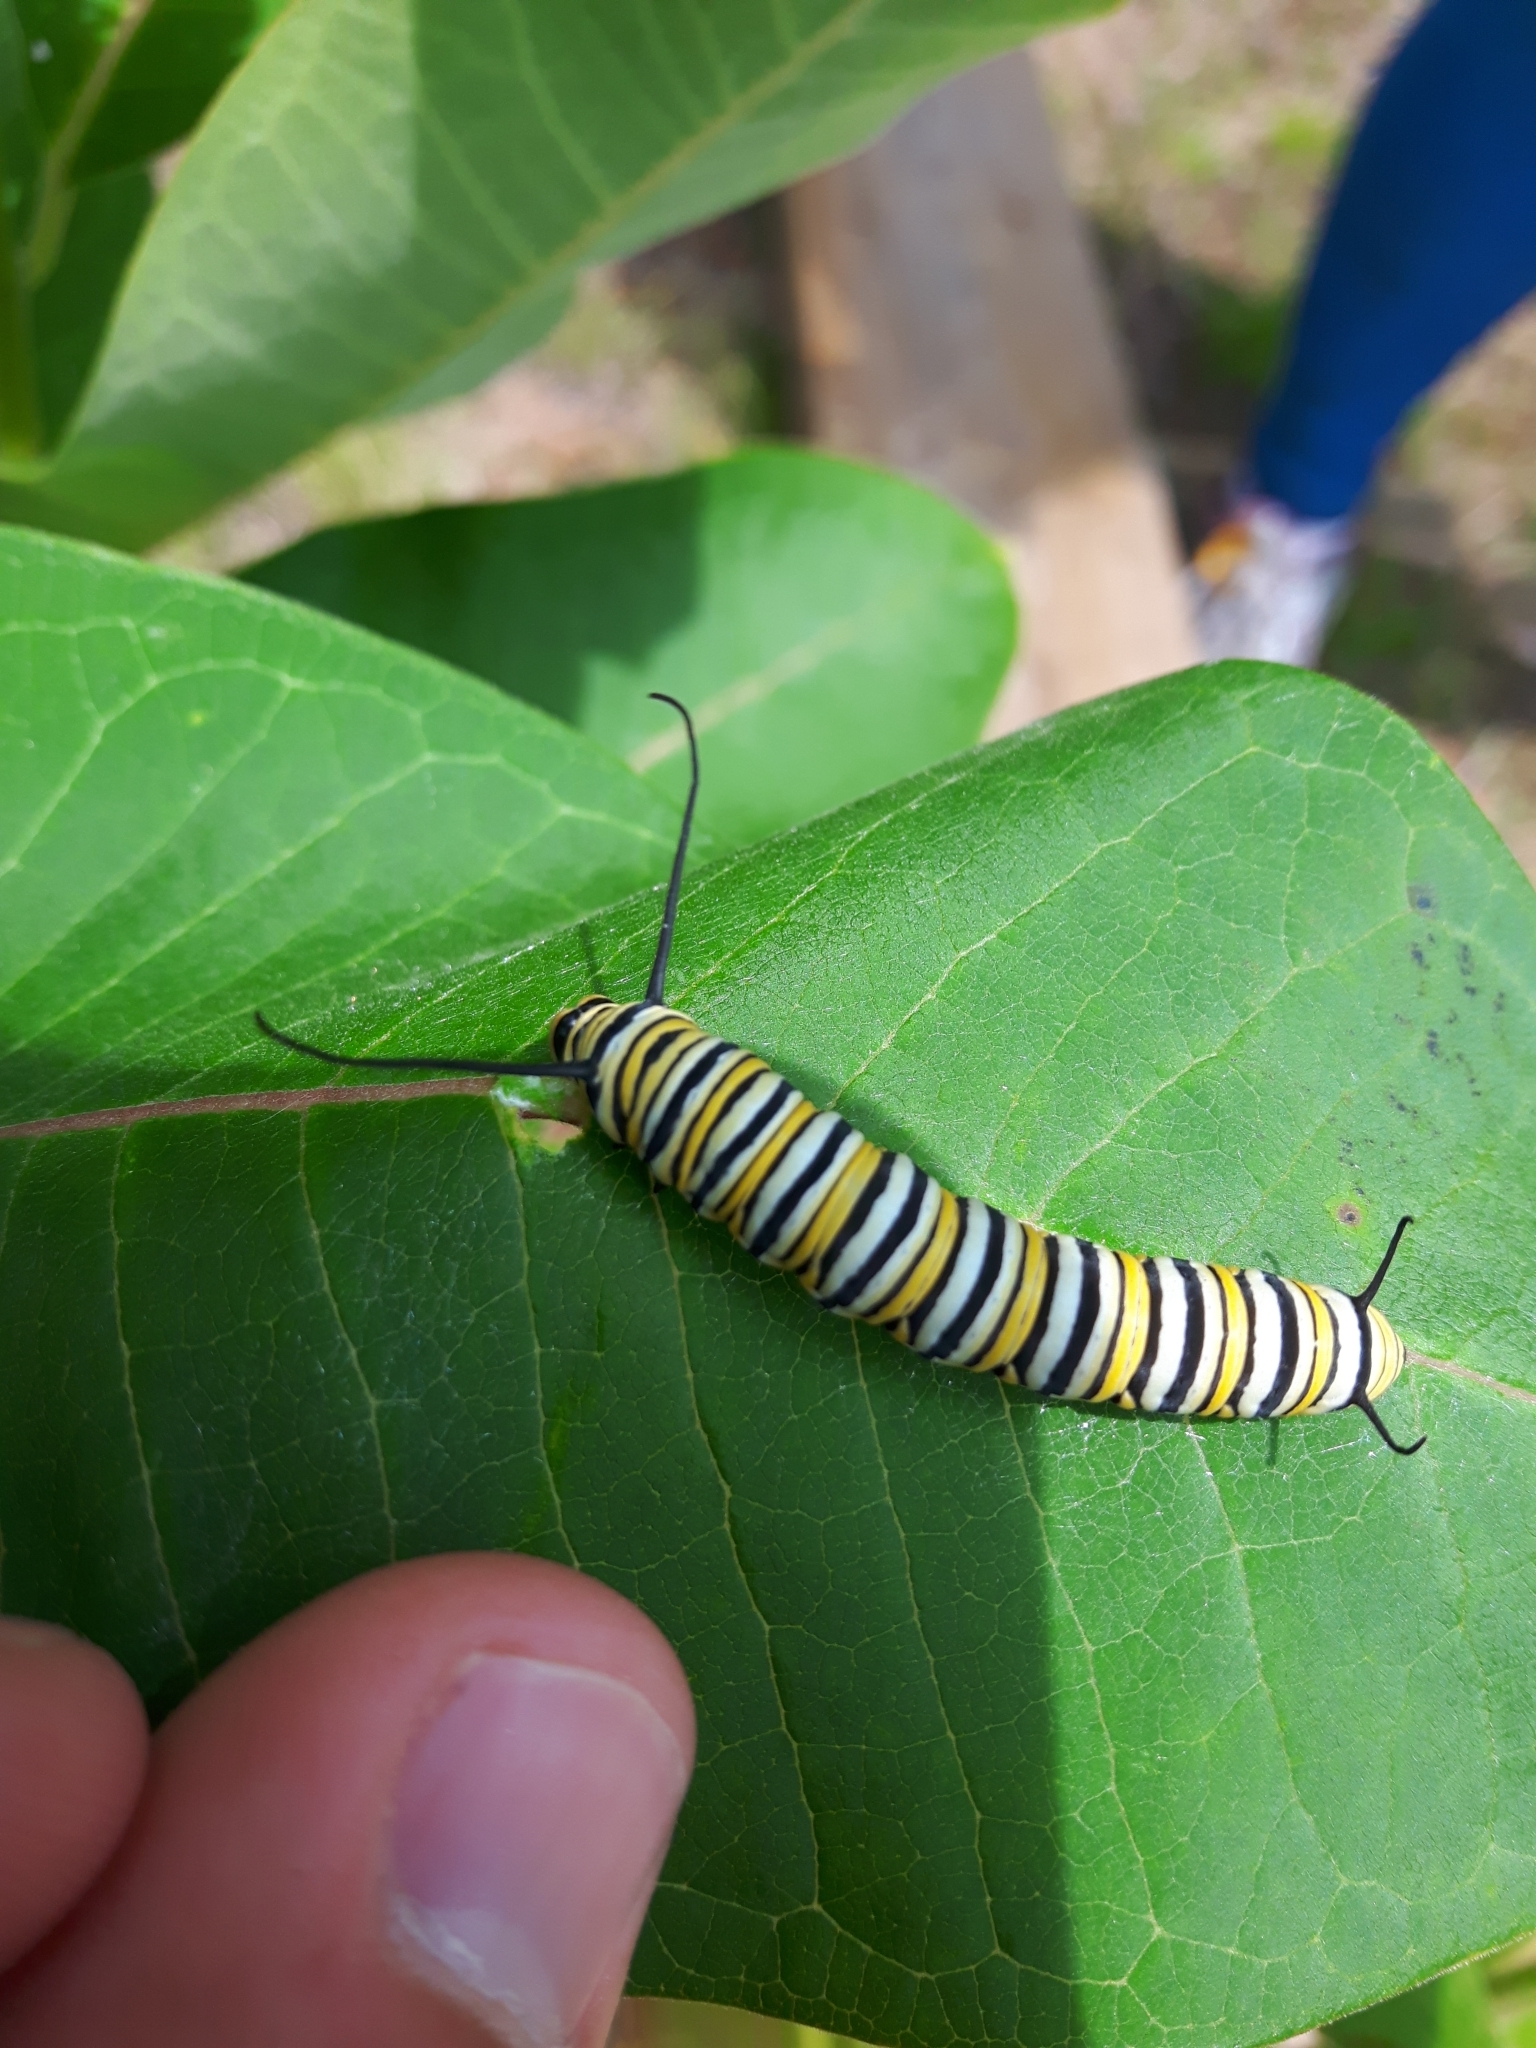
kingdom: Animalia
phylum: Arthropoda
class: Insecta
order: Lepidoptera
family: Nymphalidae
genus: Danaus
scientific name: Danaus plexippus
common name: Monarch
